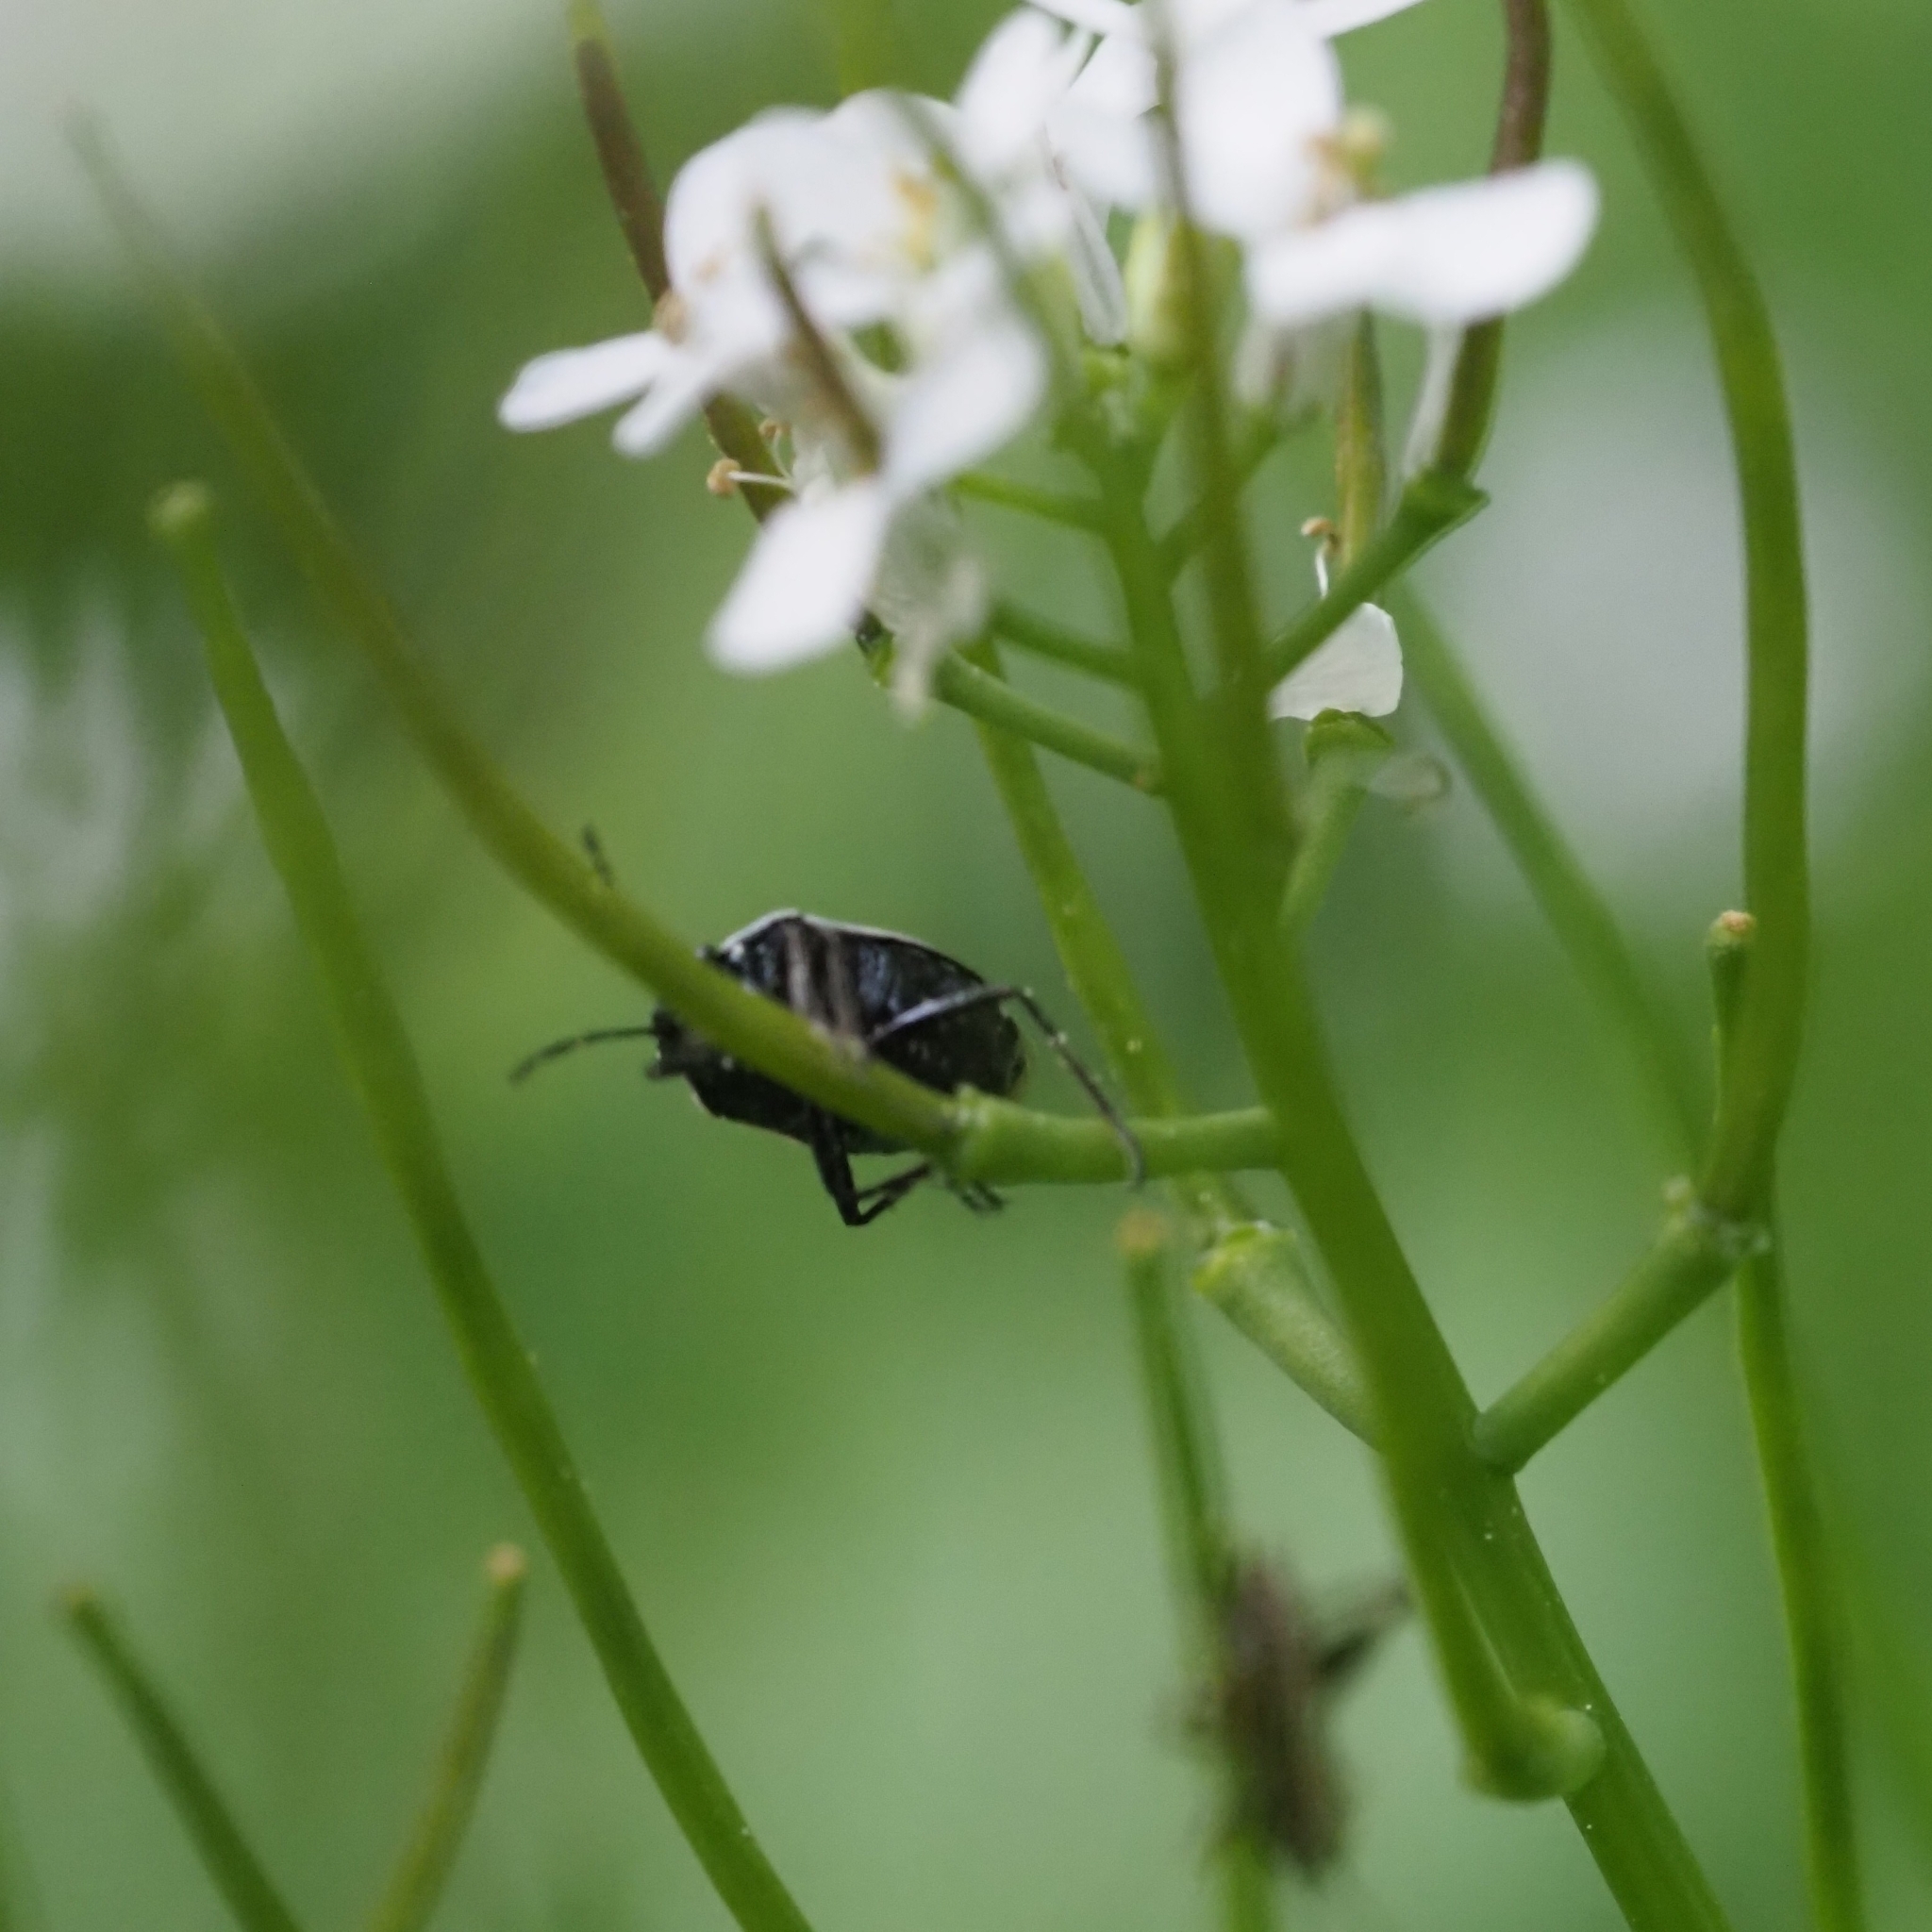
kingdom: Animalia
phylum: Arthropoda
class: Insecta
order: Hemiptera
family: Pentatomidae
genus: Eurydema
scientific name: Eurydema oleracea
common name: Cabbage bug
